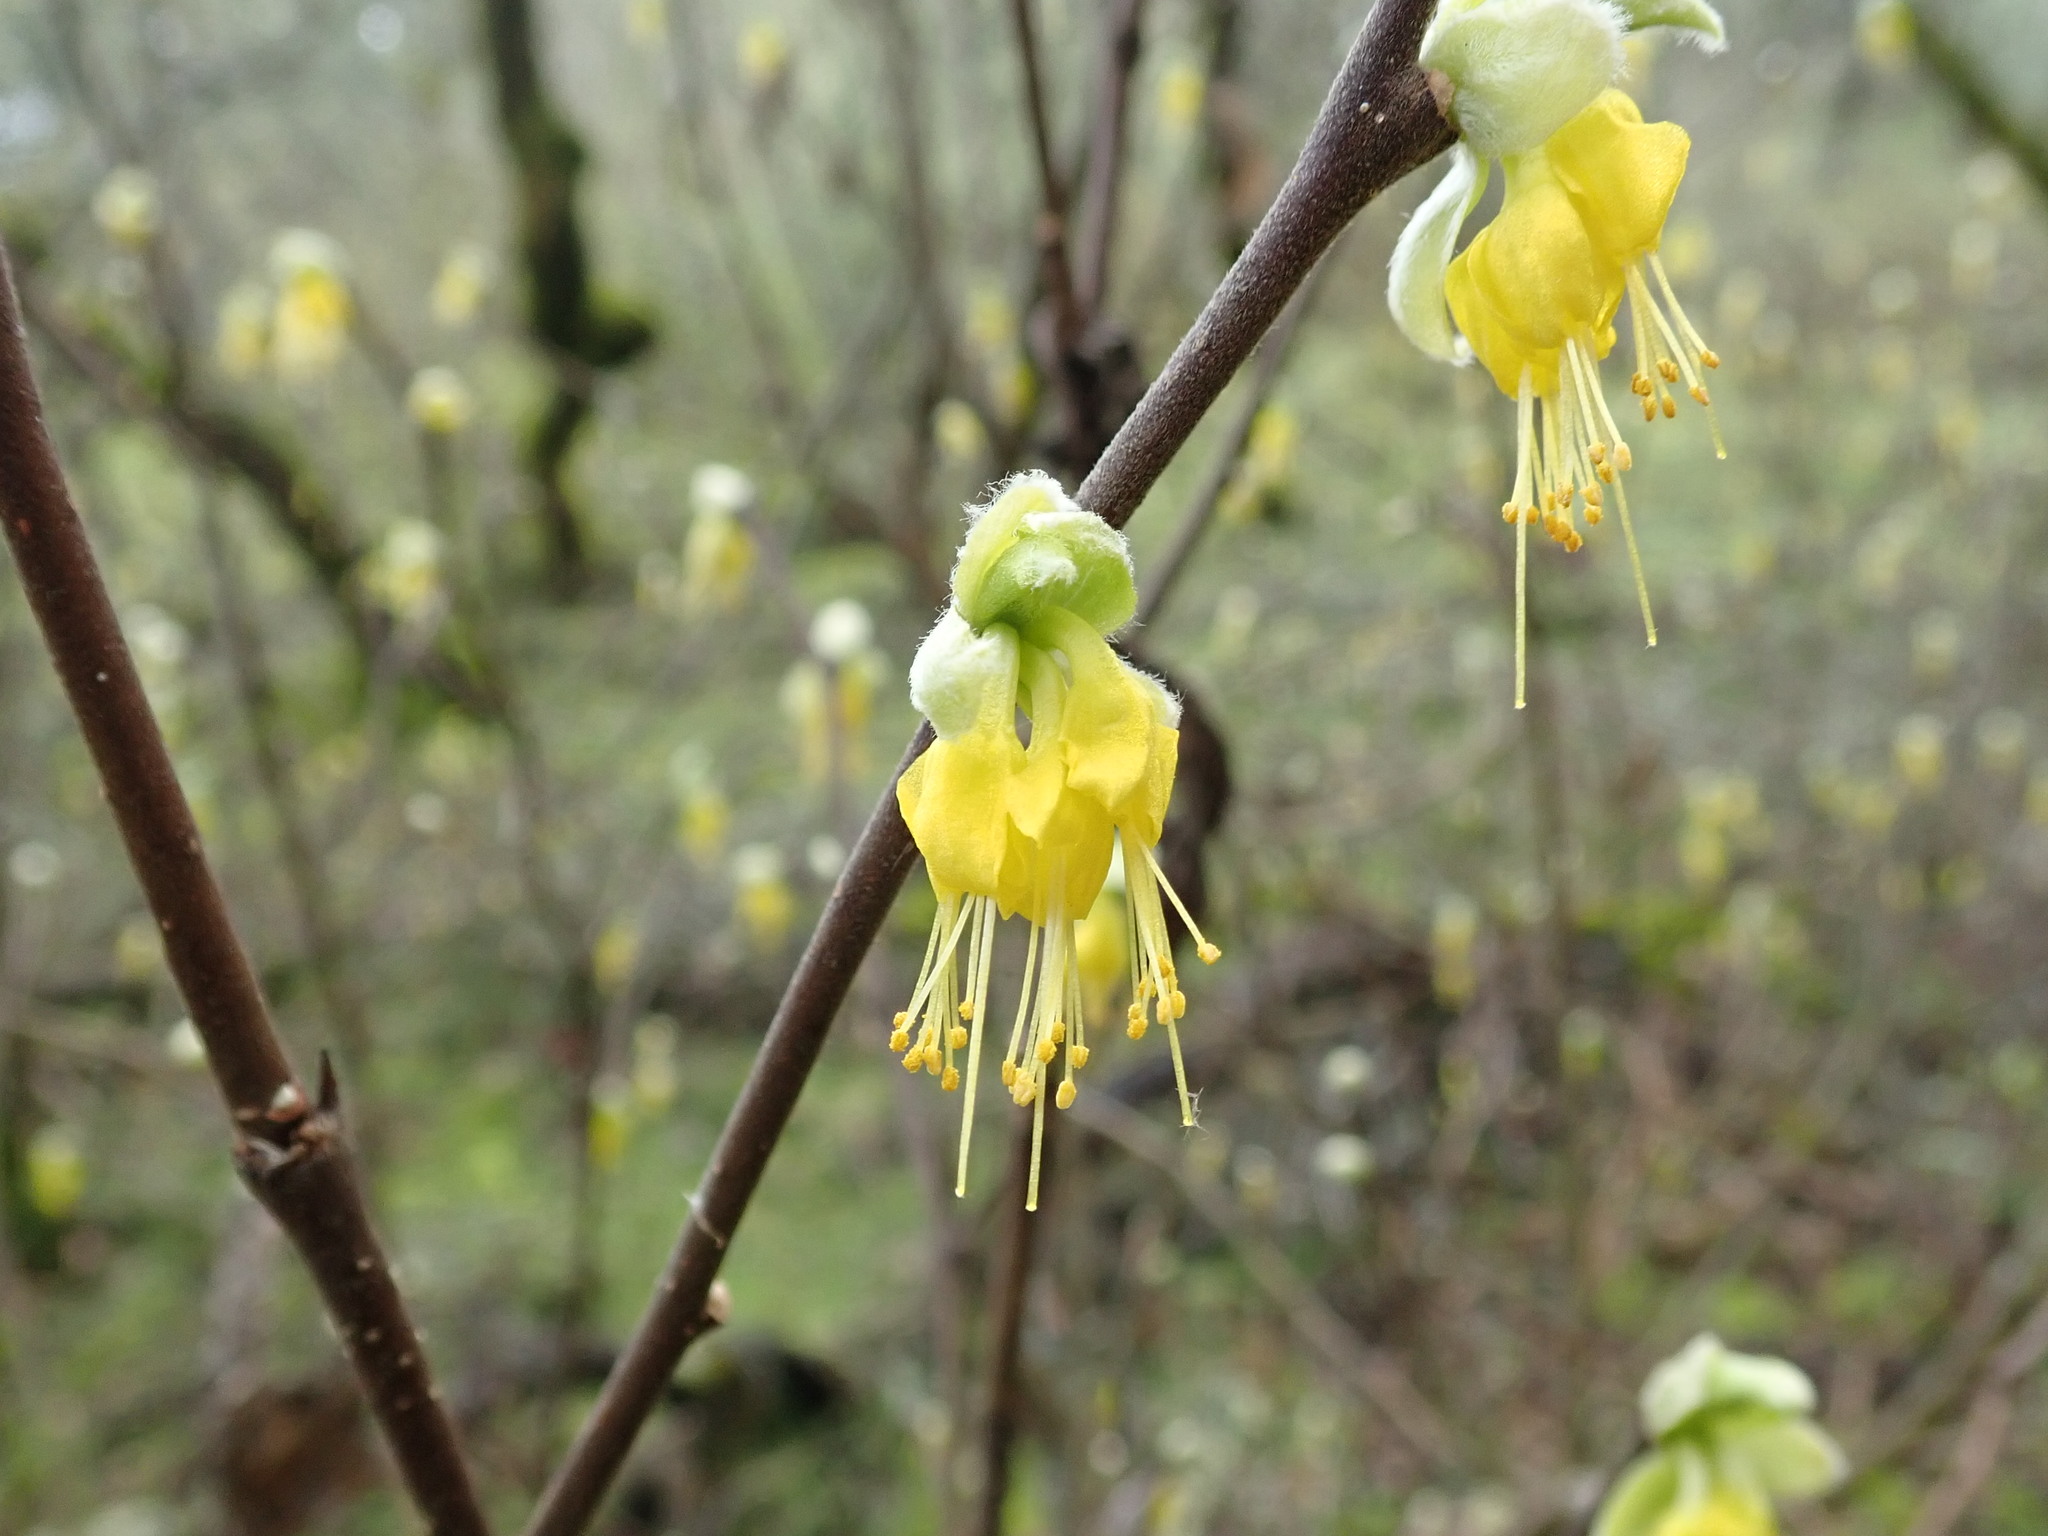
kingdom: Plantae
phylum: Tracheophyta
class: Magnoliopsida
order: Malvales
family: Thymelaeaceae
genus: Dirca
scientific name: Dirca occidentalis
